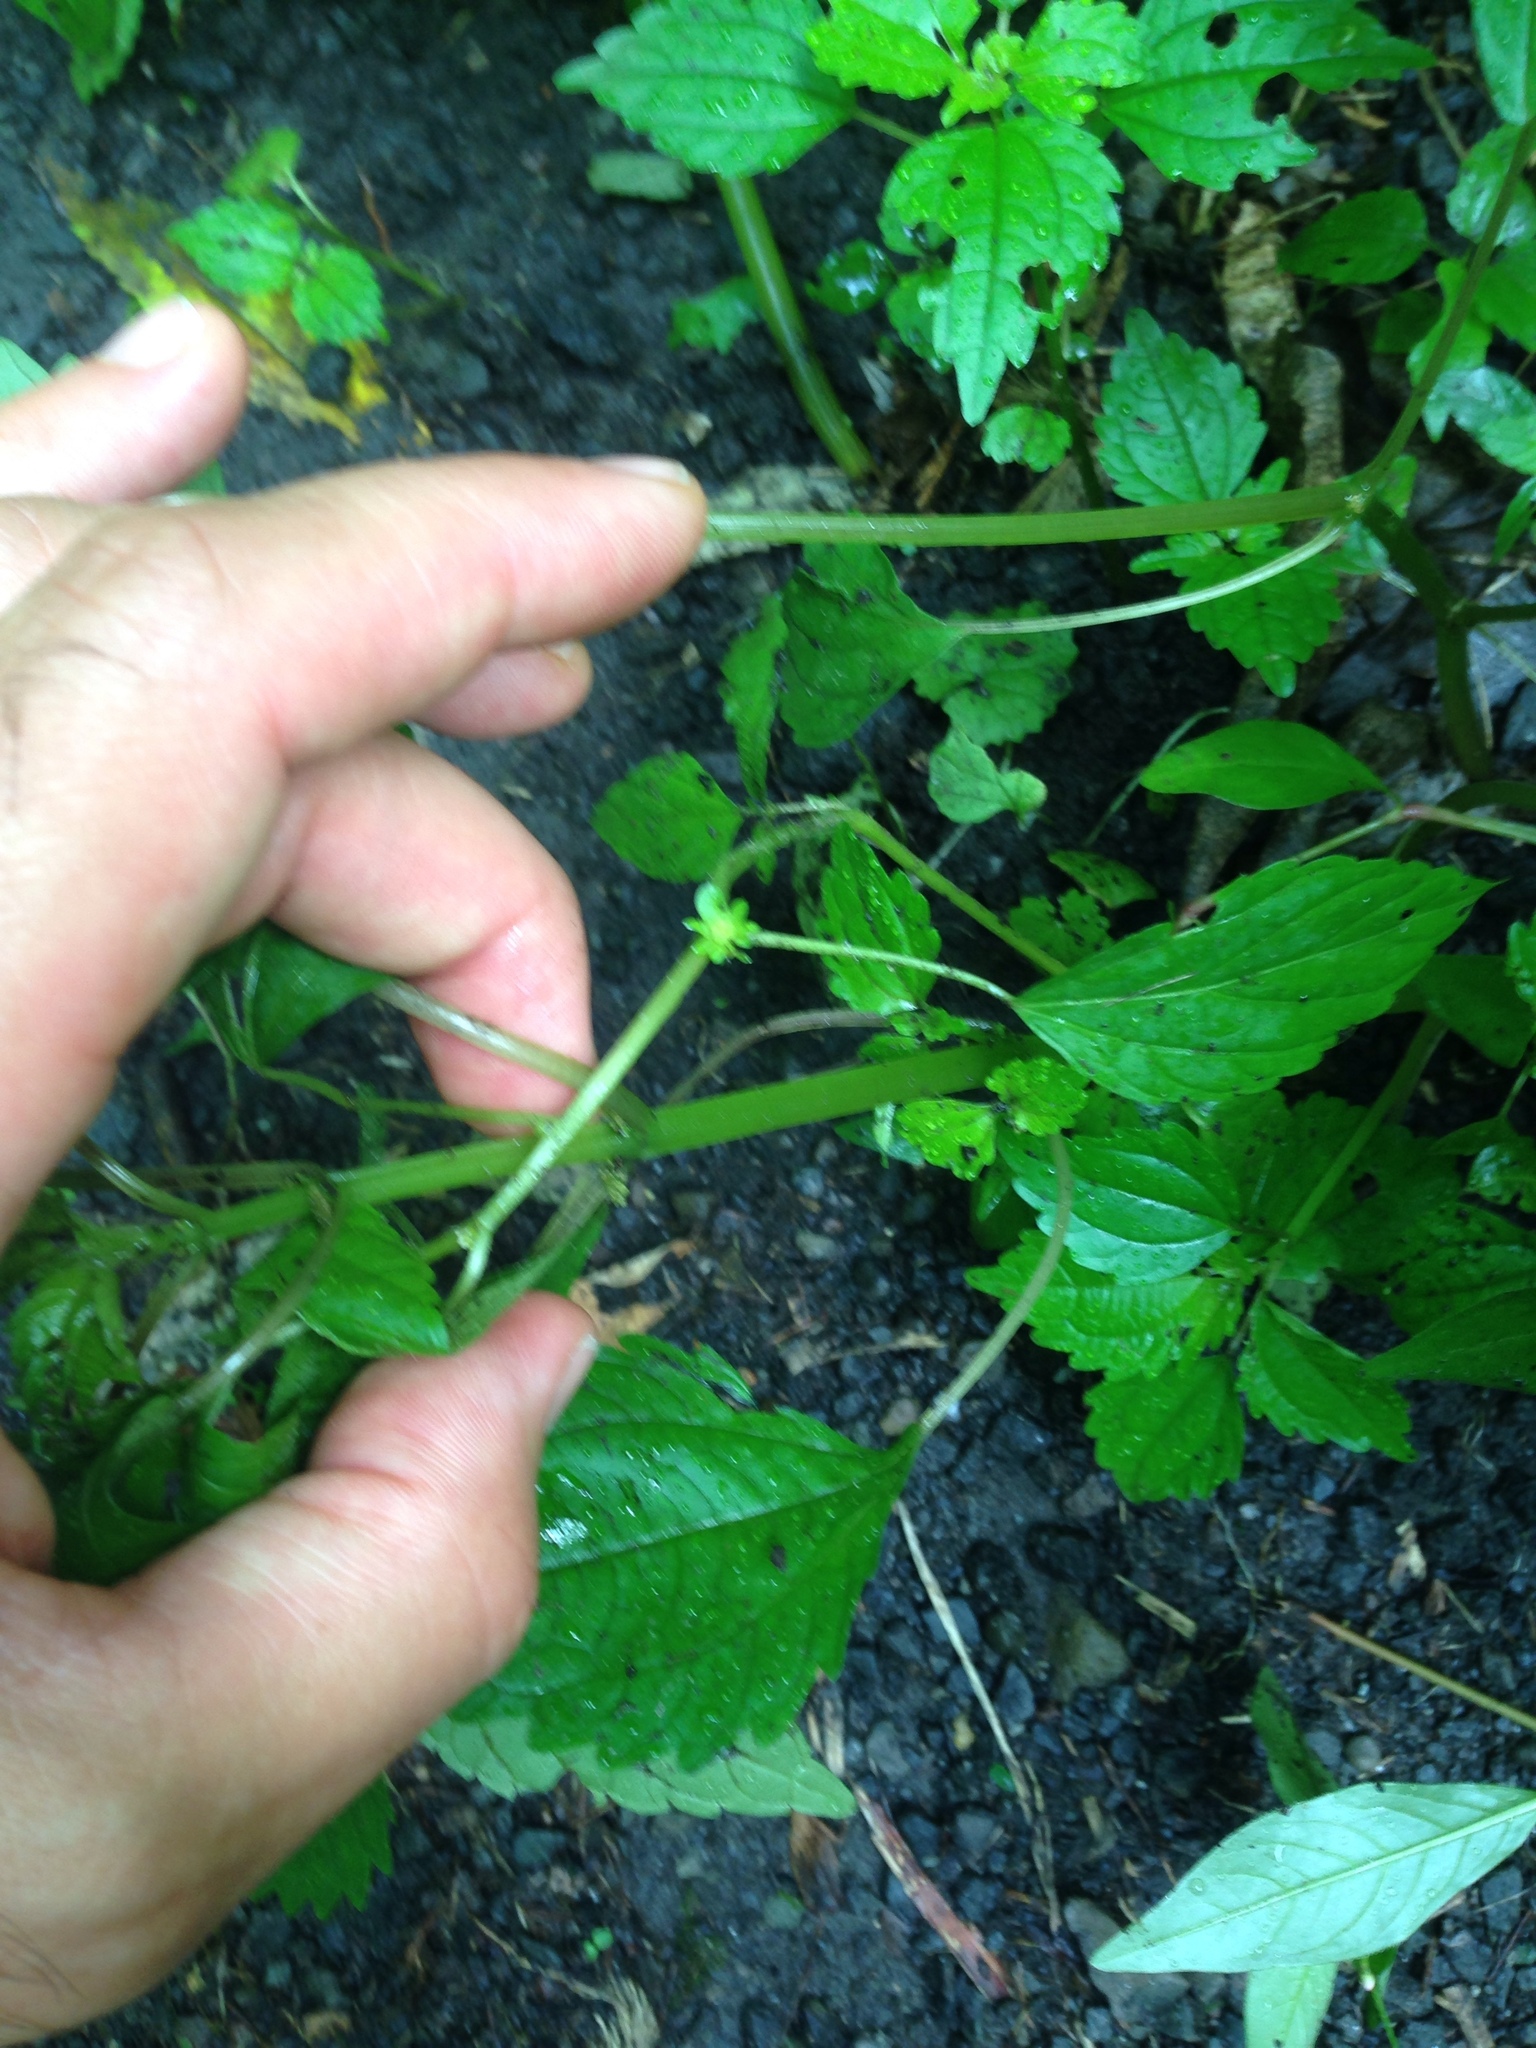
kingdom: Plantae
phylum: Tracheophyta
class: Magnoliopsida
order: Rosales
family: Urticaceae
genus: Pilea
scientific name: Pilea pumila
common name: Clearweed
